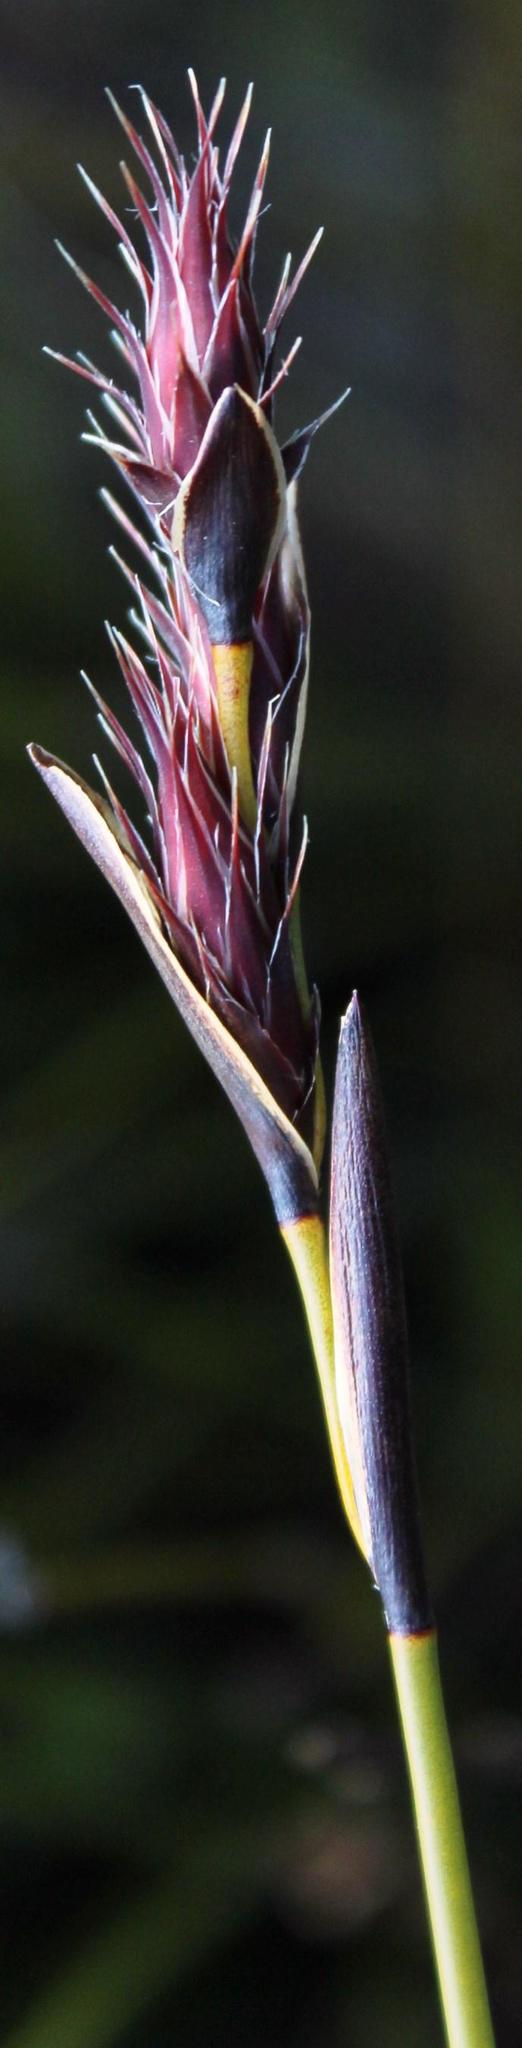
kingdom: Plantae
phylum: Tracheophyta
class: Liliopsida
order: Poales
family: Restionaceae
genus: Hypodiscus
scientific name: Hypodiscus aristatus
